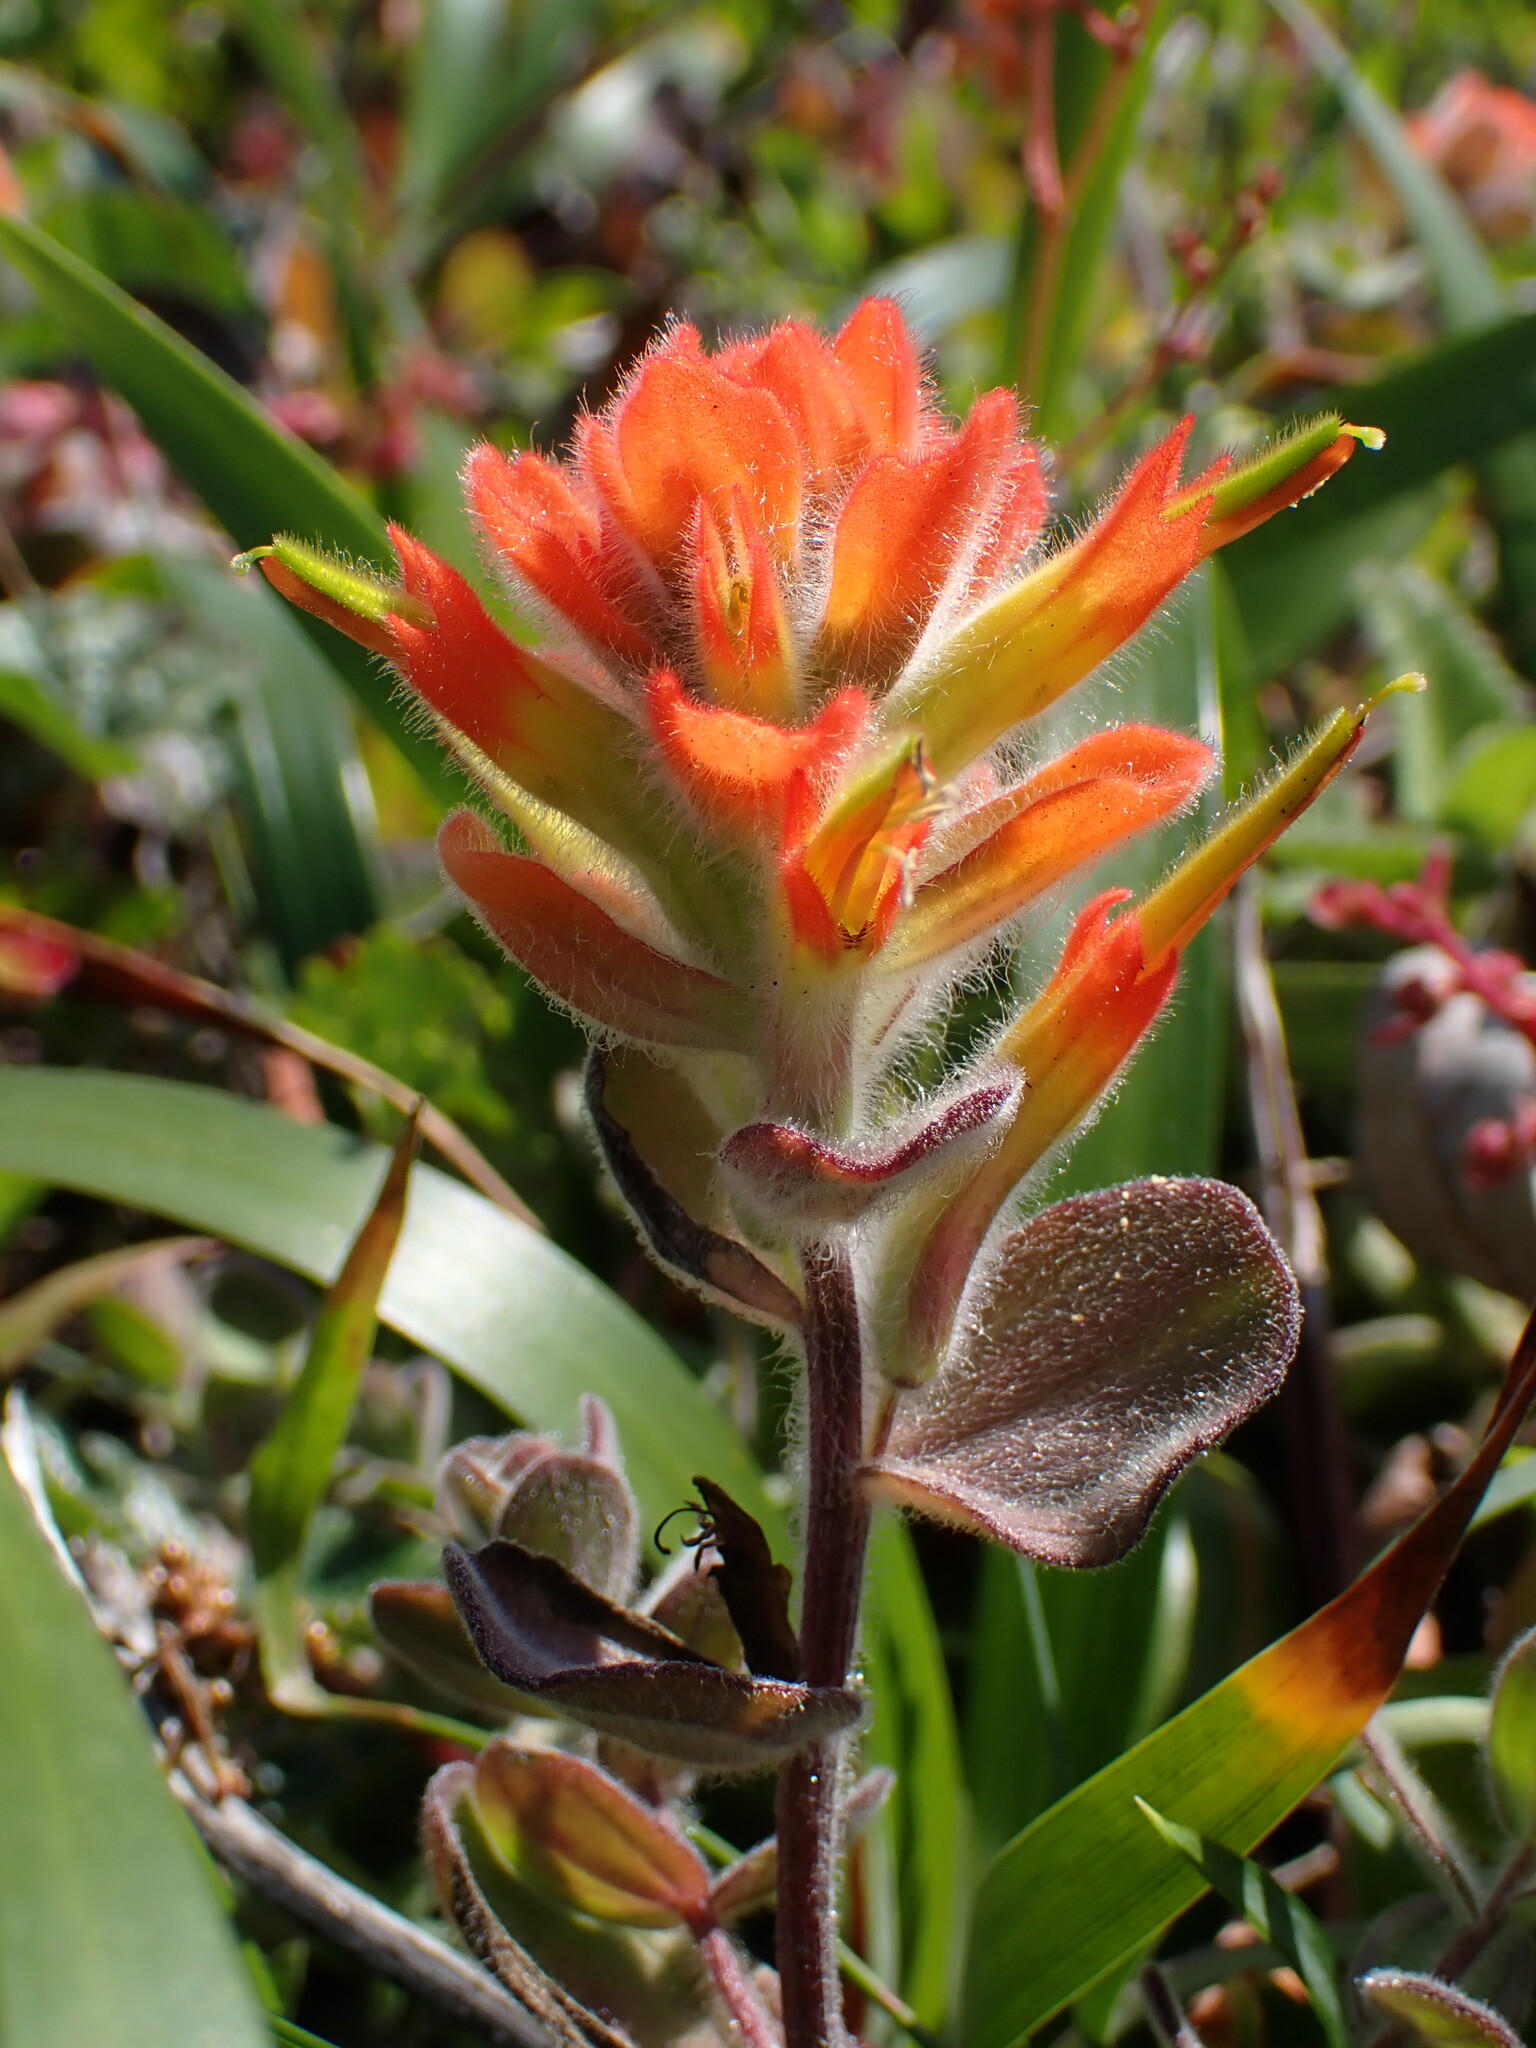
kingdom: Plantae
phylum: Tracheophyta
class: Magnoliopsida
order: Lamiales
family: Orobanchaceae
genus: Castilleja
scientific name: Castilleja mendocinensis
